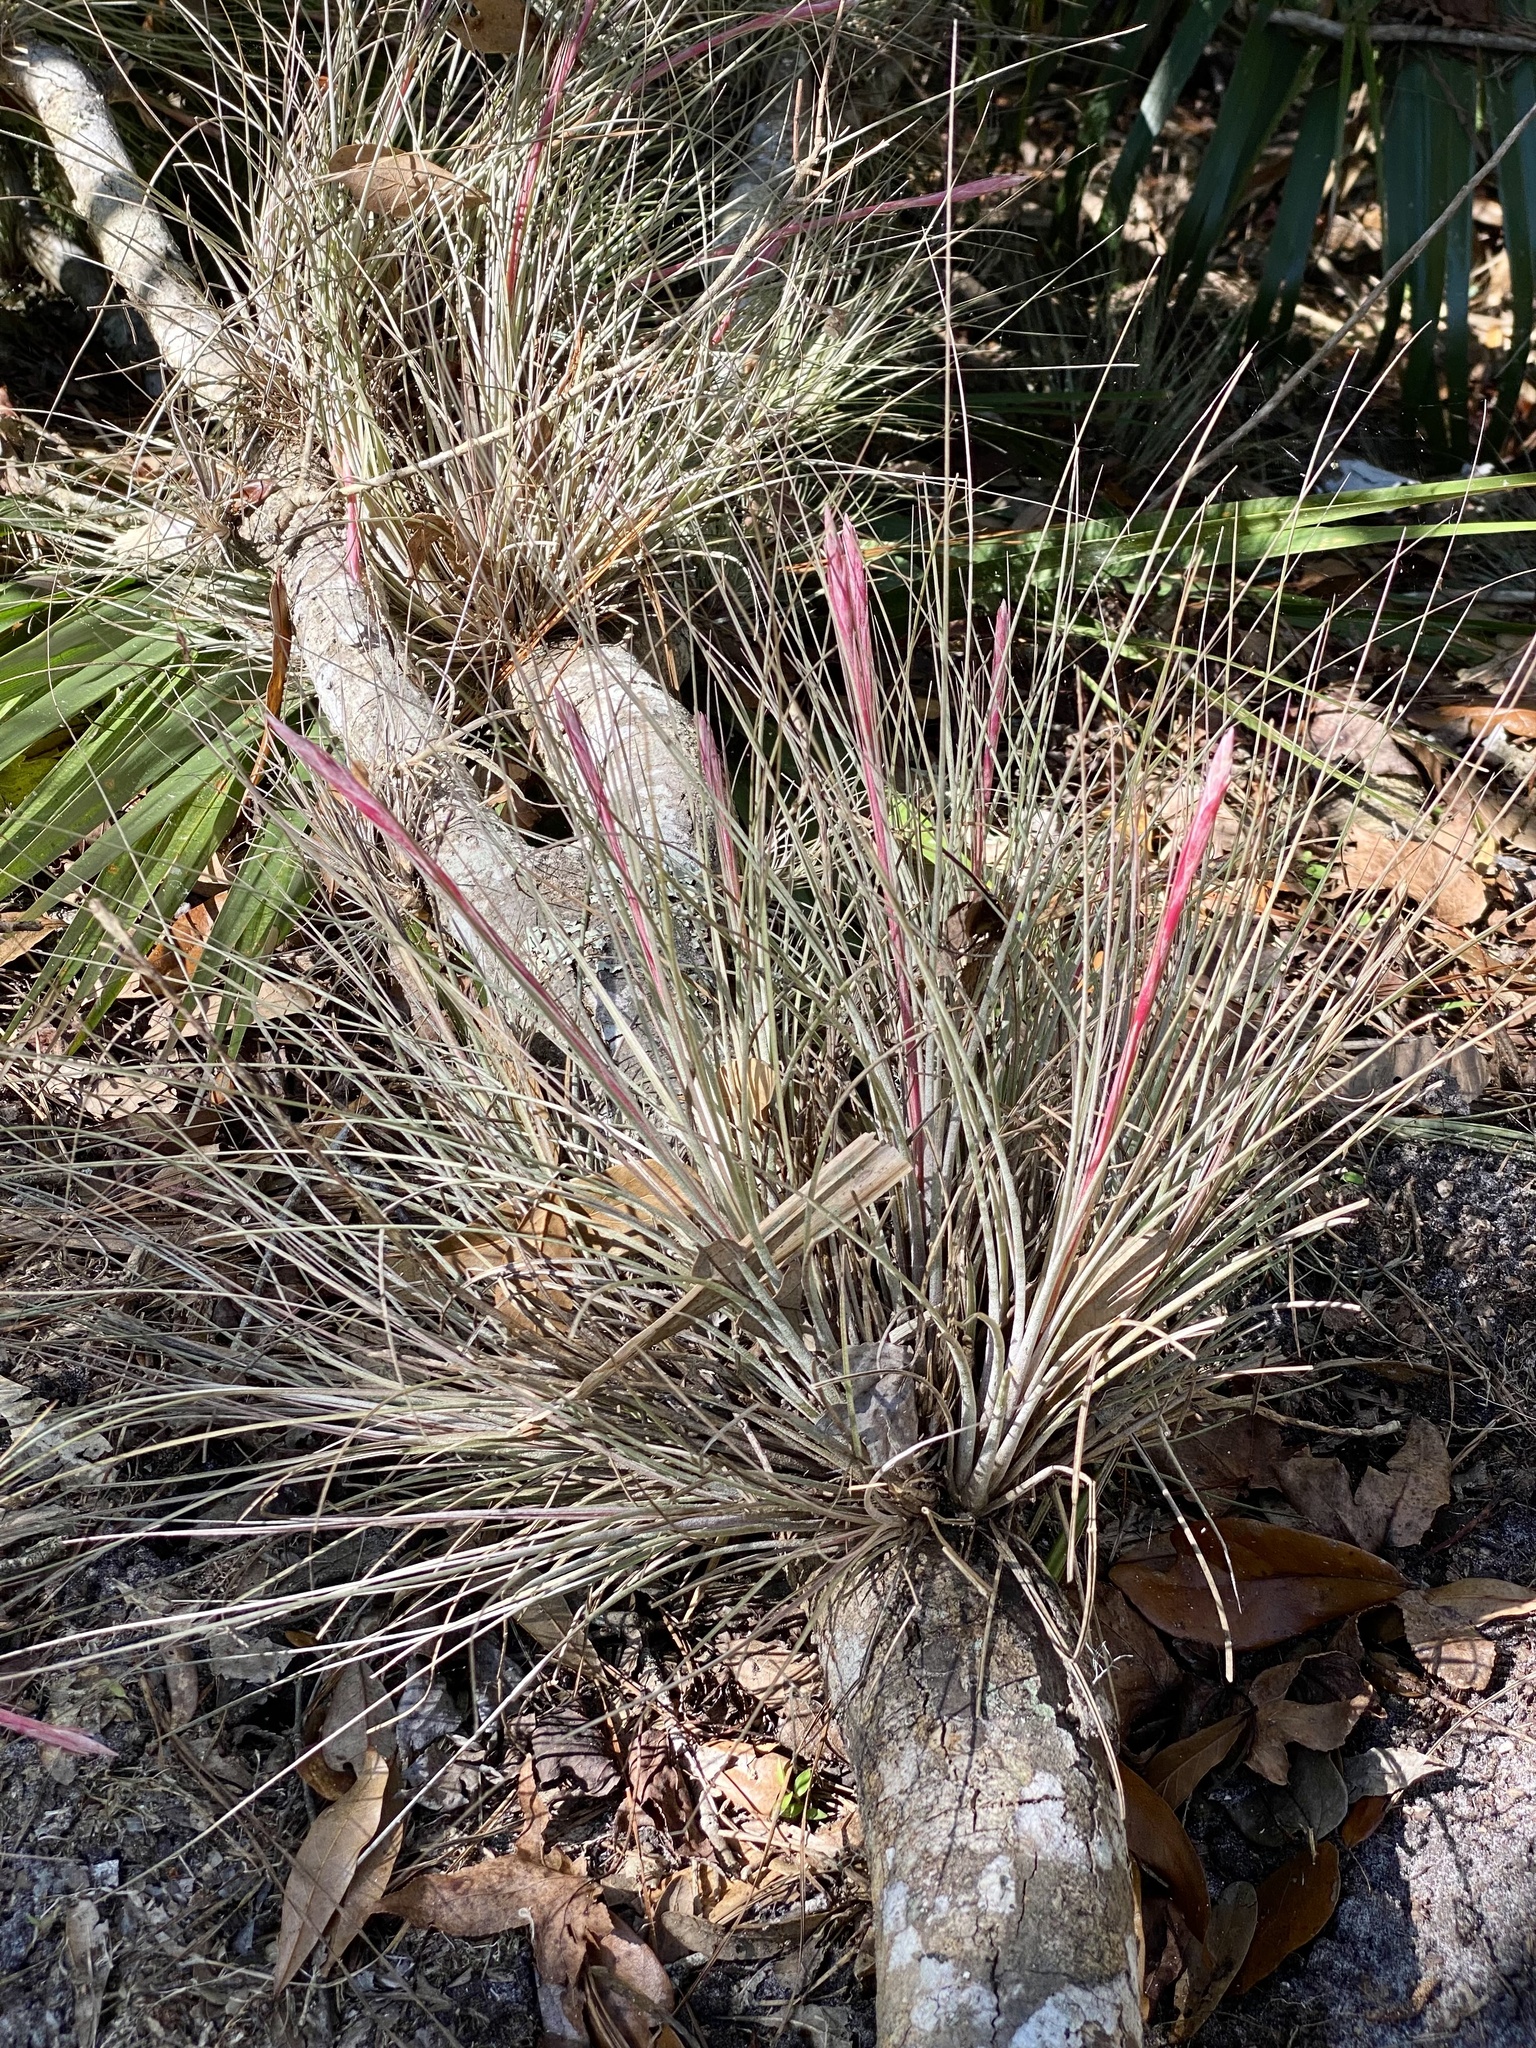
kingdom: Plantae
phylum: Tracheophyta
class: Liliopsida
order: Poales
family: Bromeliaceae
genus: Tillandsia
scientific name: Tillandsia bartramii
